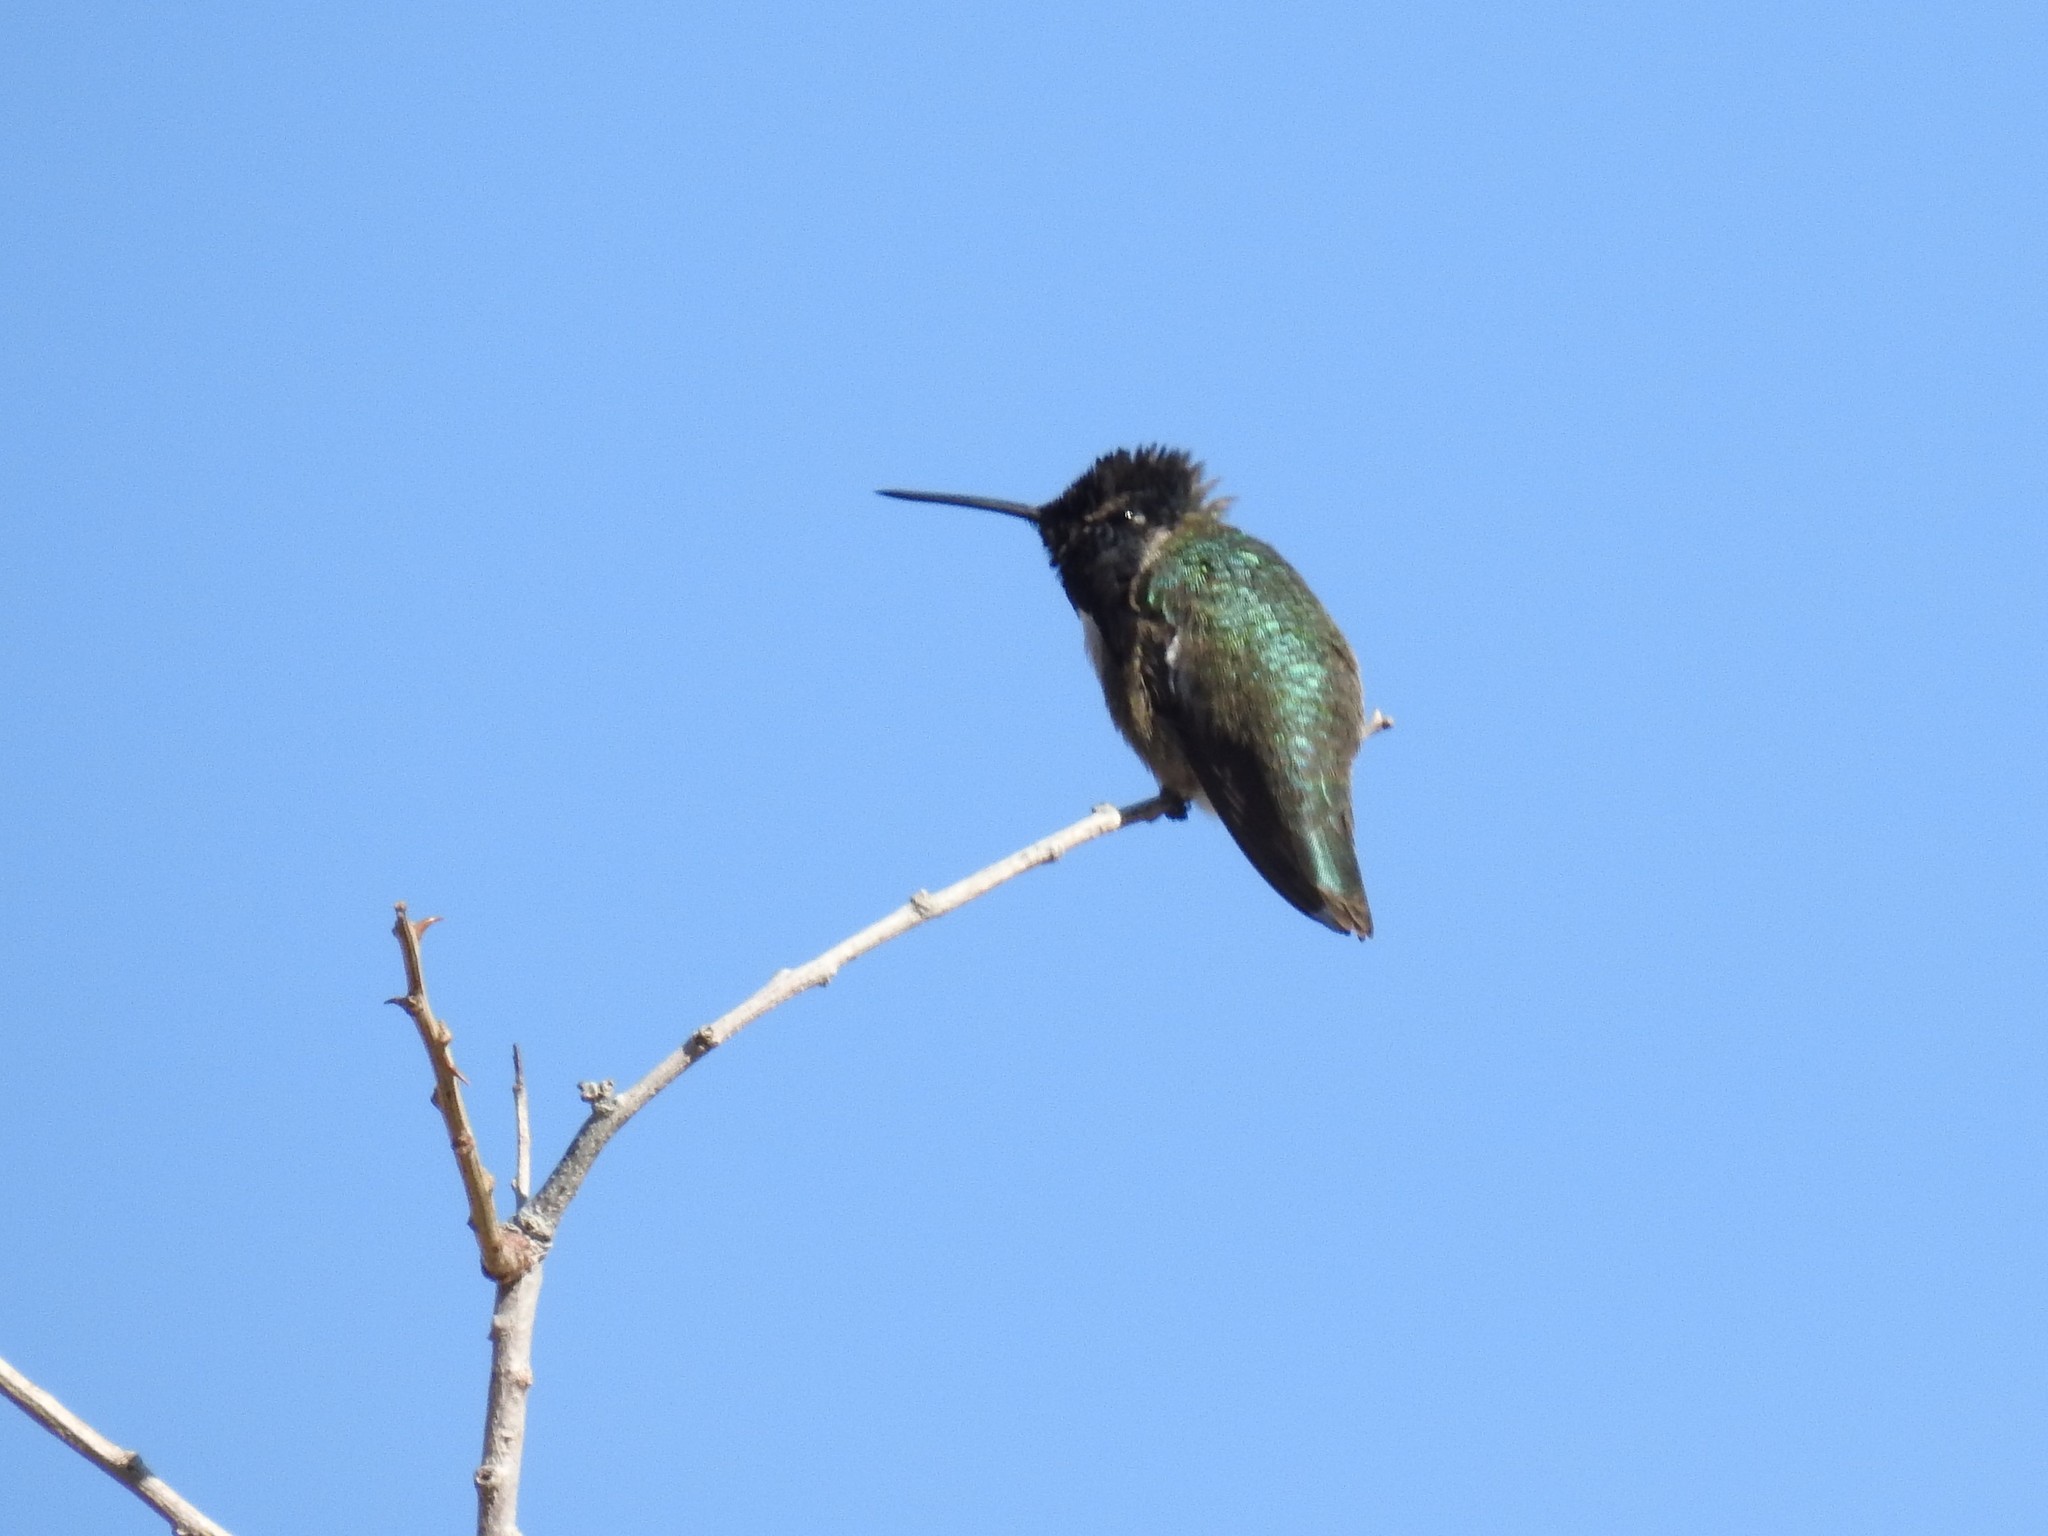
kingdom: Animalia
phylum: Chordata
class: Aves
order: Apodiformes
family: Trochilidae
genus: Calypte
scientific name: Calypte costae
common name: Costa's hummingbird
